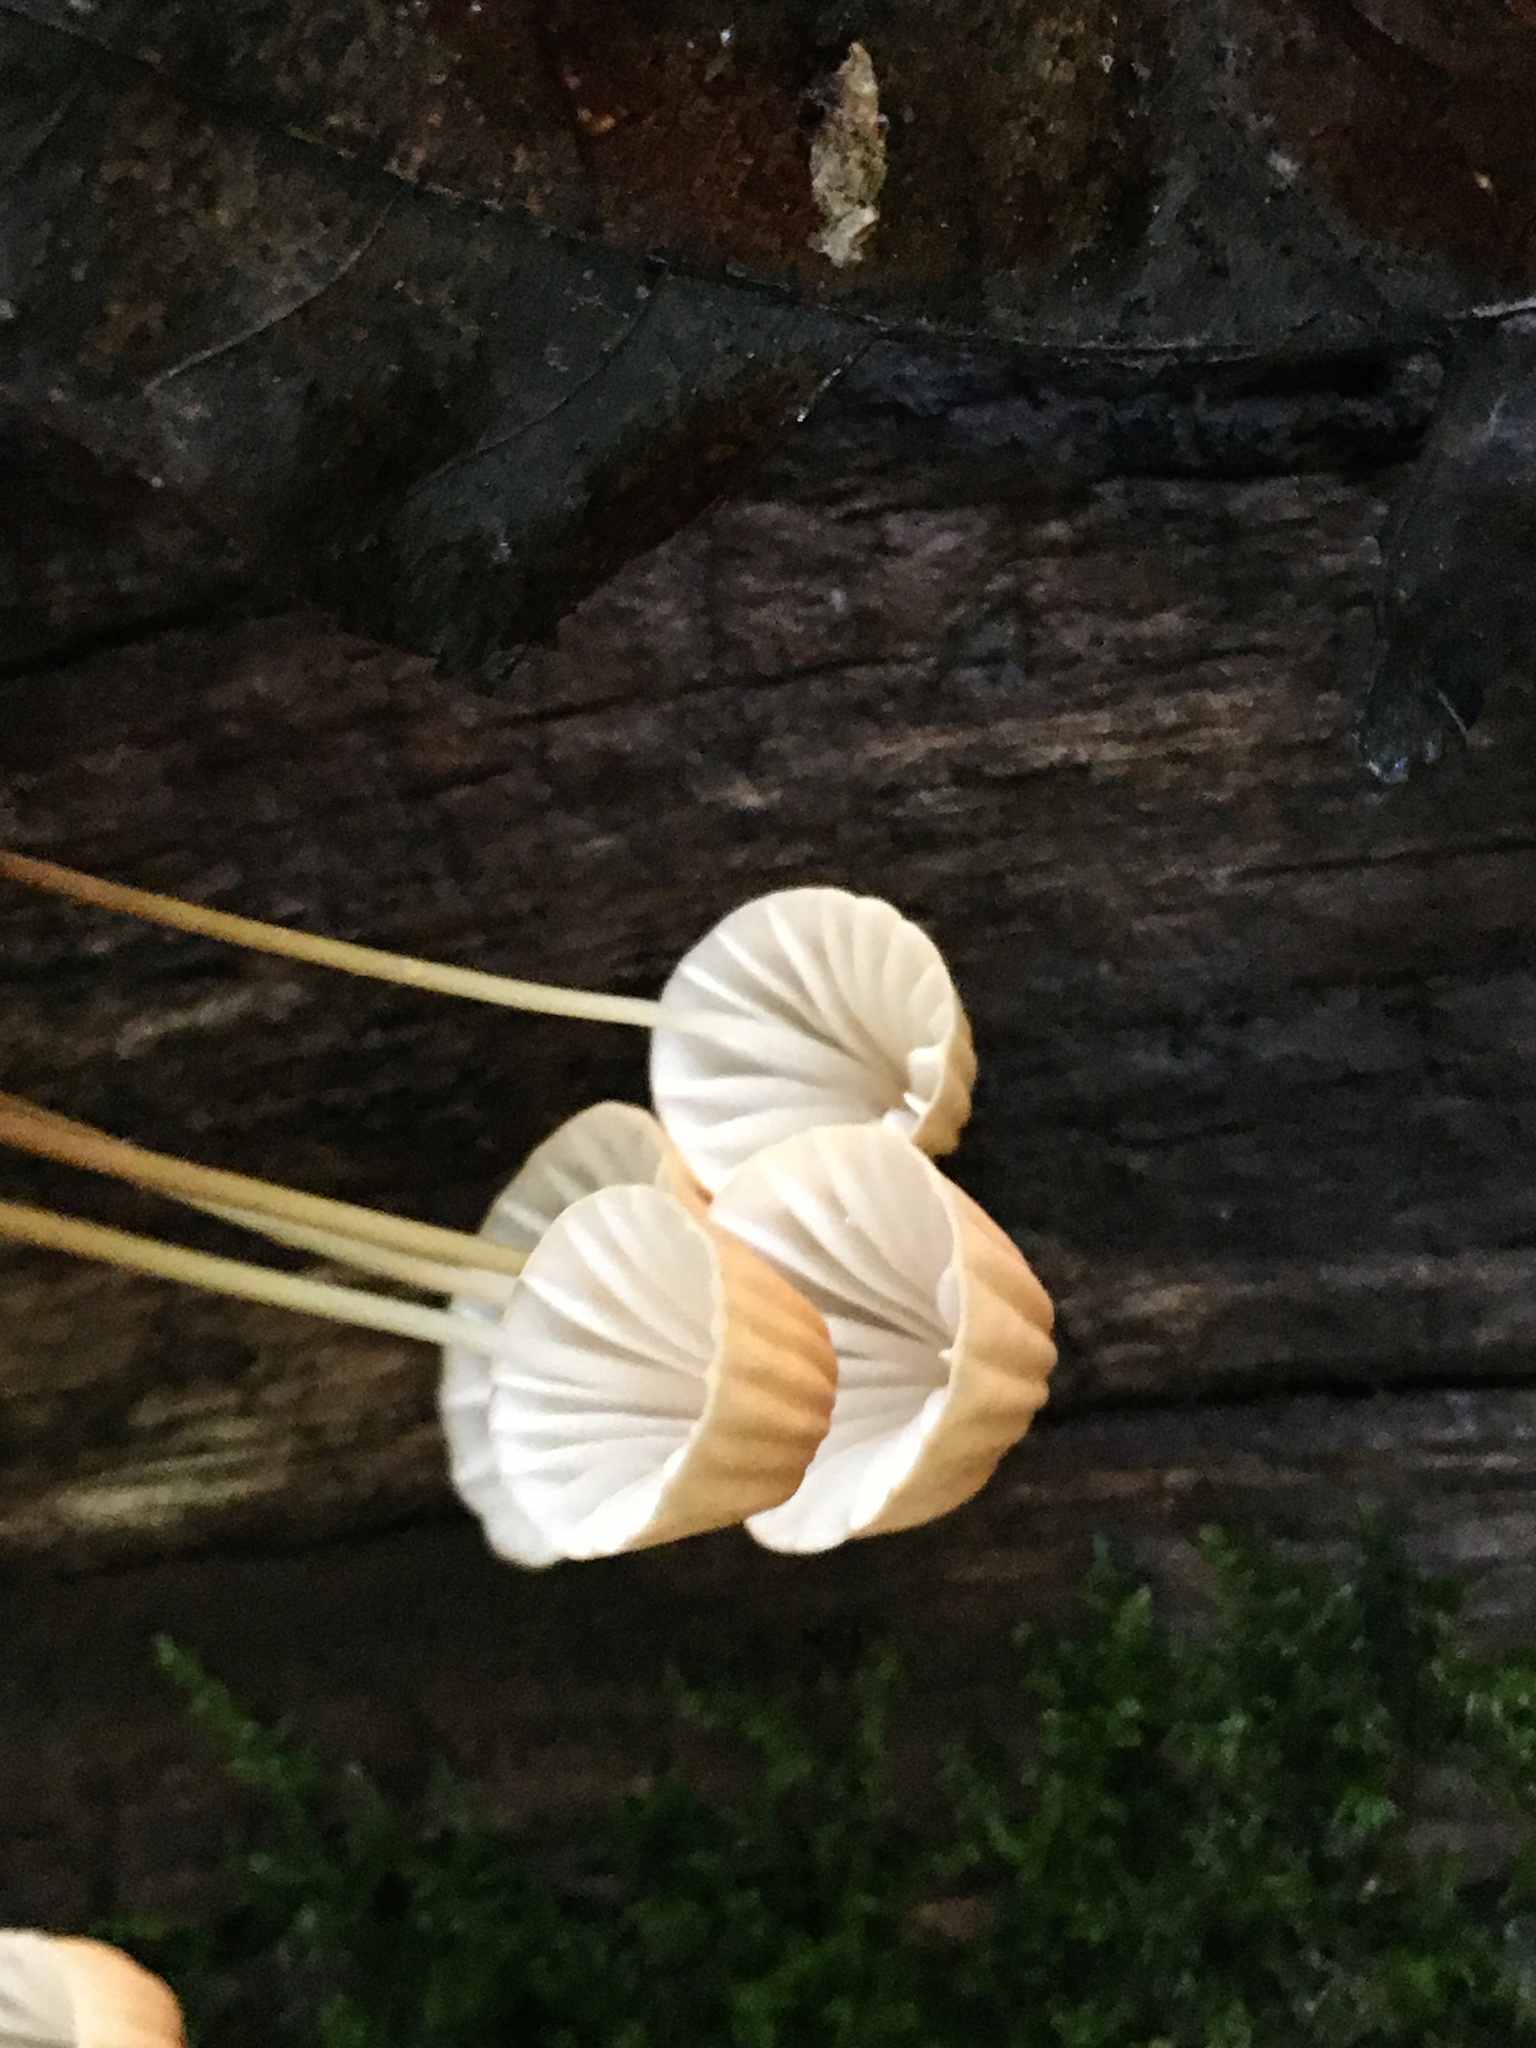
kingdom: Fungi
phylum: Basidiomycota
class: Agaricomycetes
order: Agaricales
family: Marasmiaceae
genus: Marasmius
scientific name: Marasmius siccus
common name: Orange pinwheel
